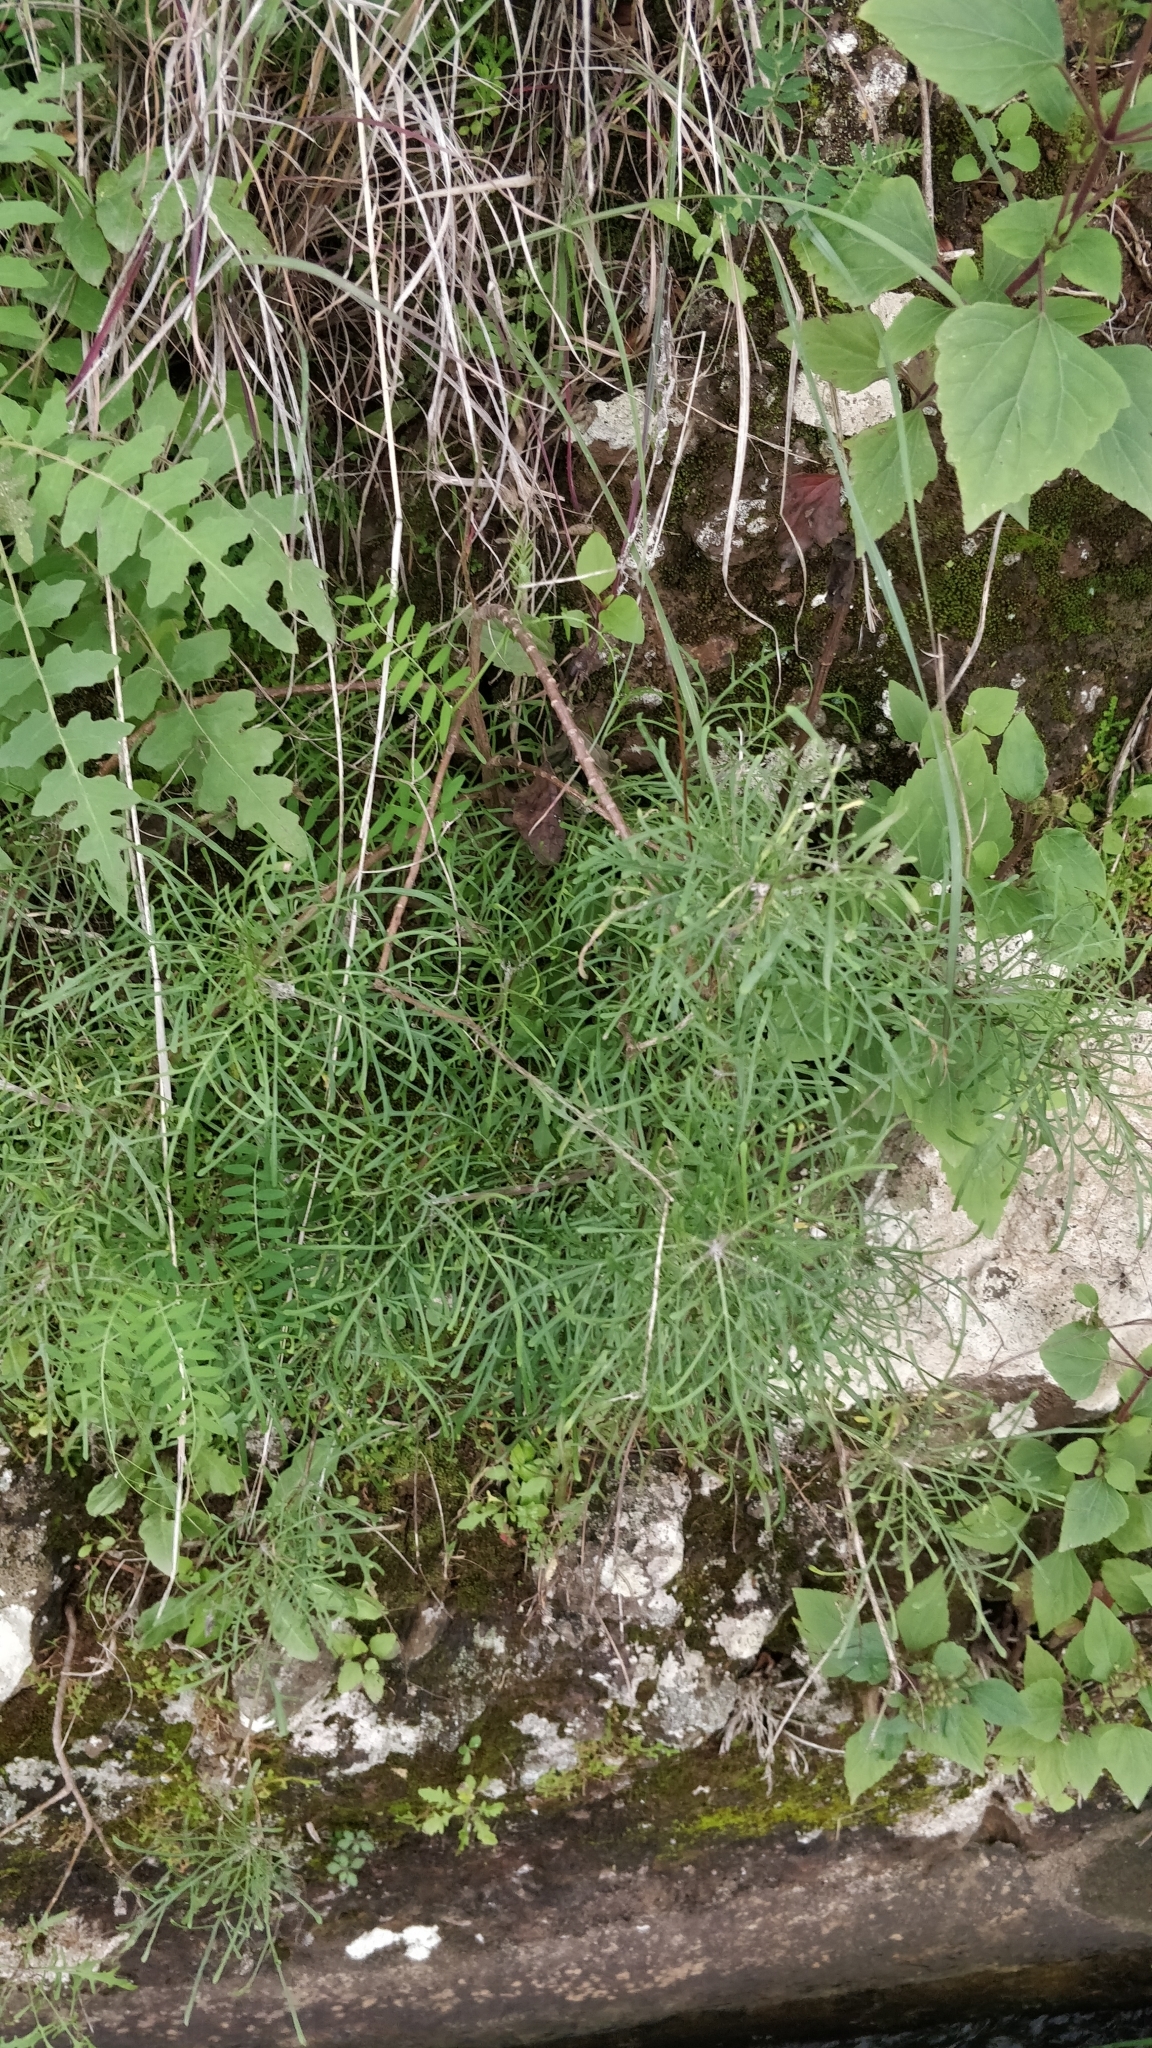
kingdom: Plantae
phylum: Tracheophyta
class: Magnoliopsida
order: Asterales
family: Asteraceae
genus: Tolpis
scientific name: Tolpis succulenta
